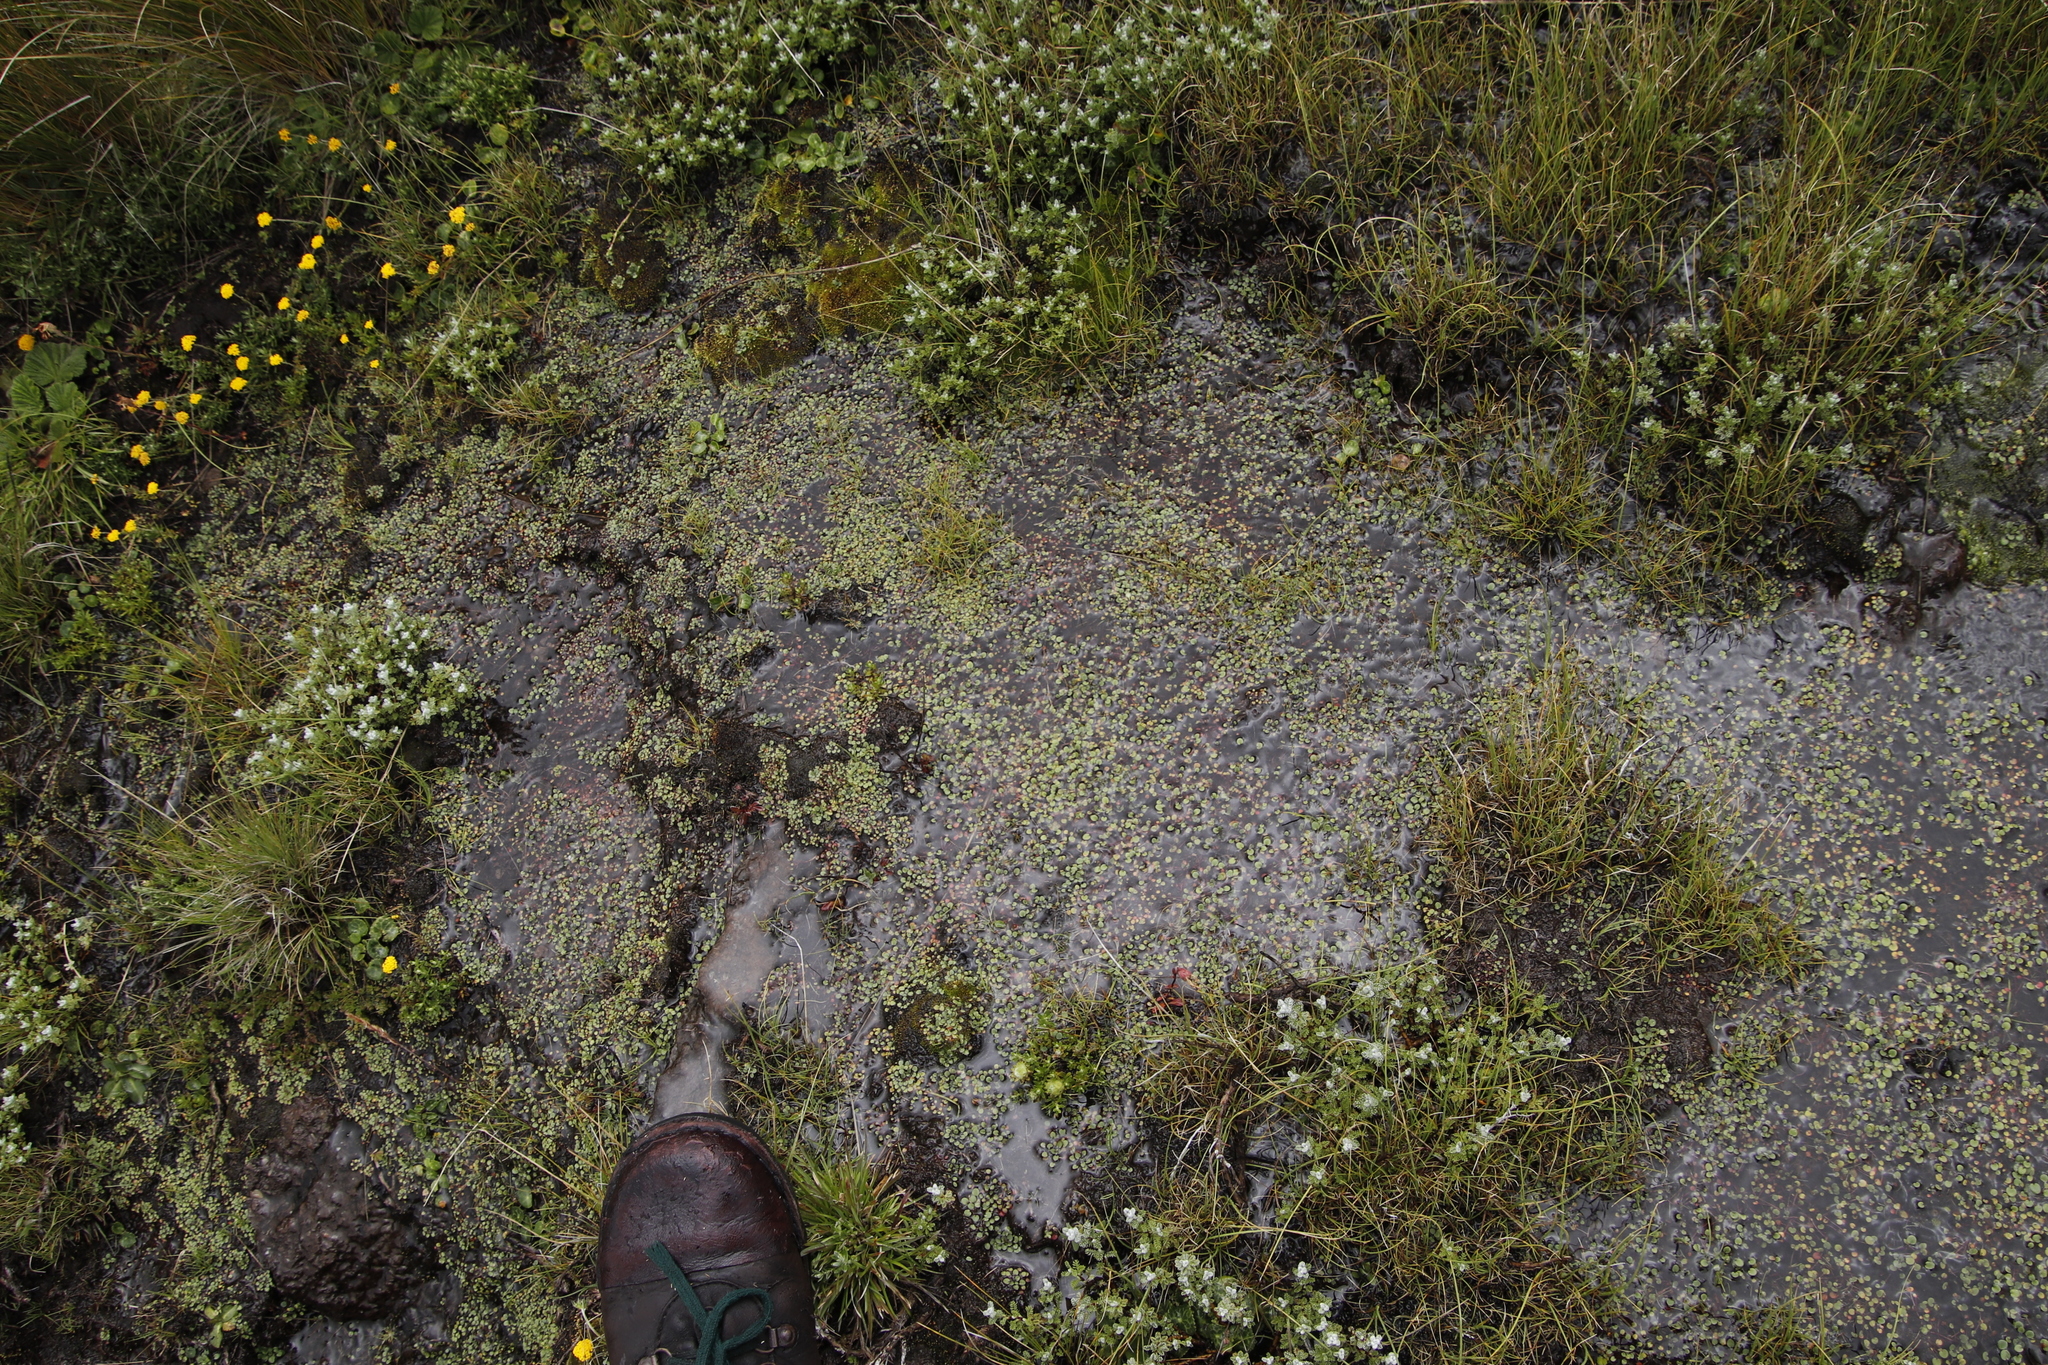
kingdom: Plantae
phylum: Tracheophyta
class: Magnoliopsida
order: Lamiales
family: Scrophulariaceae
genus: Limosella
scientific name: Limosella vesiculosa
